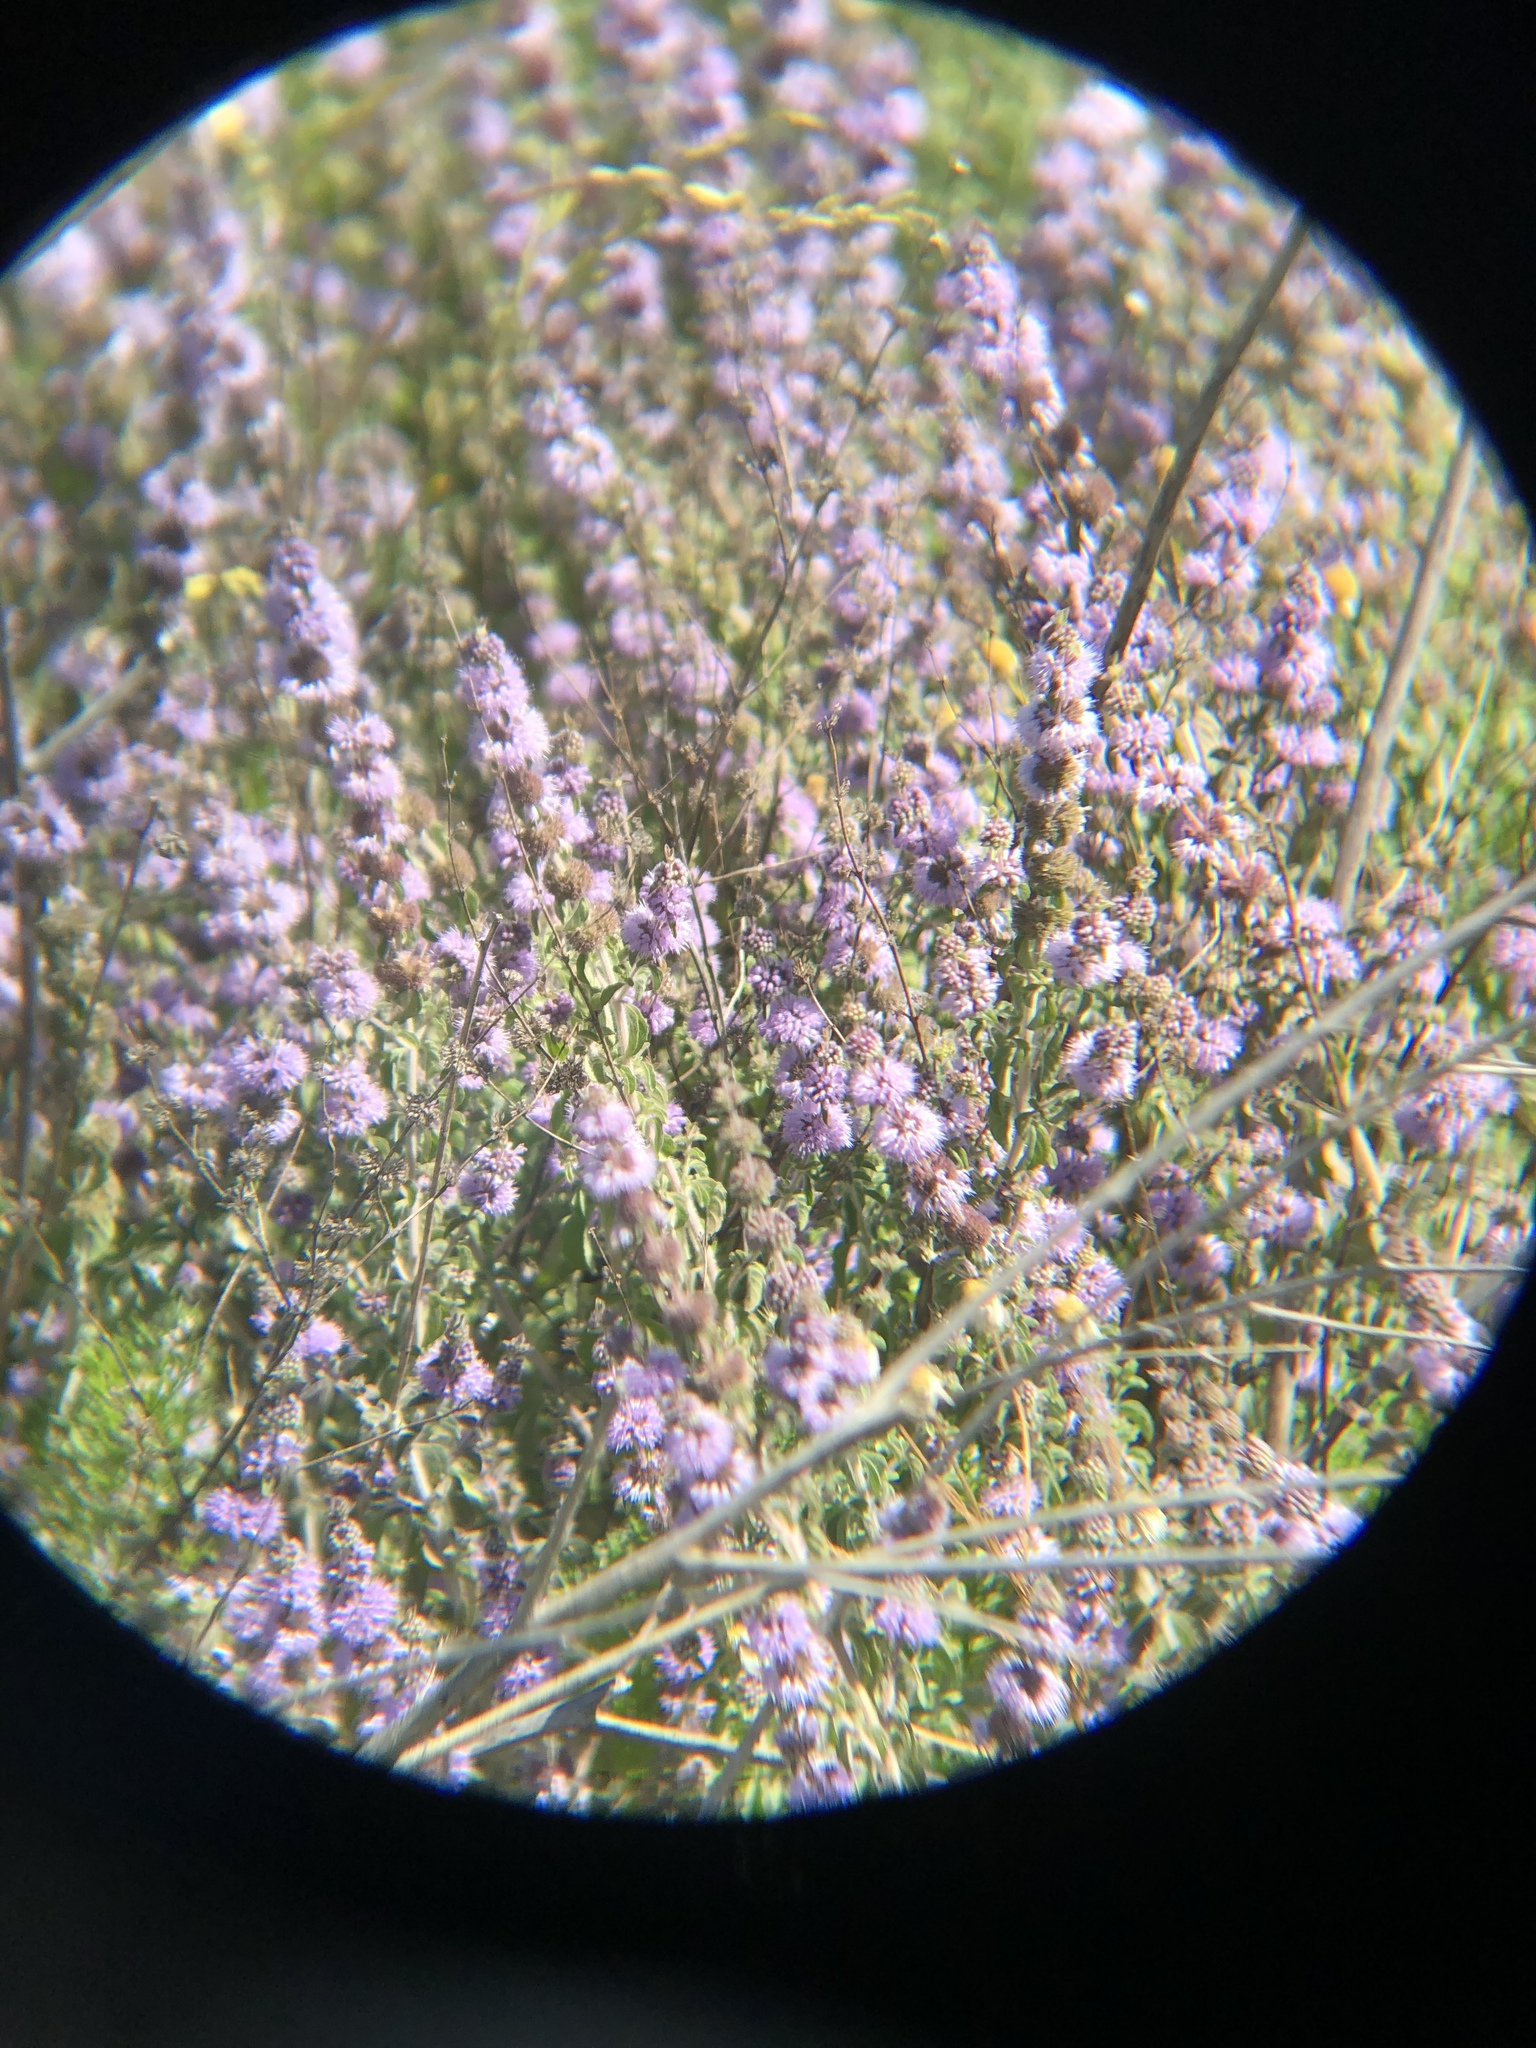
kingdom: Plantae
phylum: Tracheophyta
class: Magnoliopsida
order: Lamiales
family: Lamiaceae
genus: Mentha
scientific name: Mentha pulegium
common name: Pennyroyal
